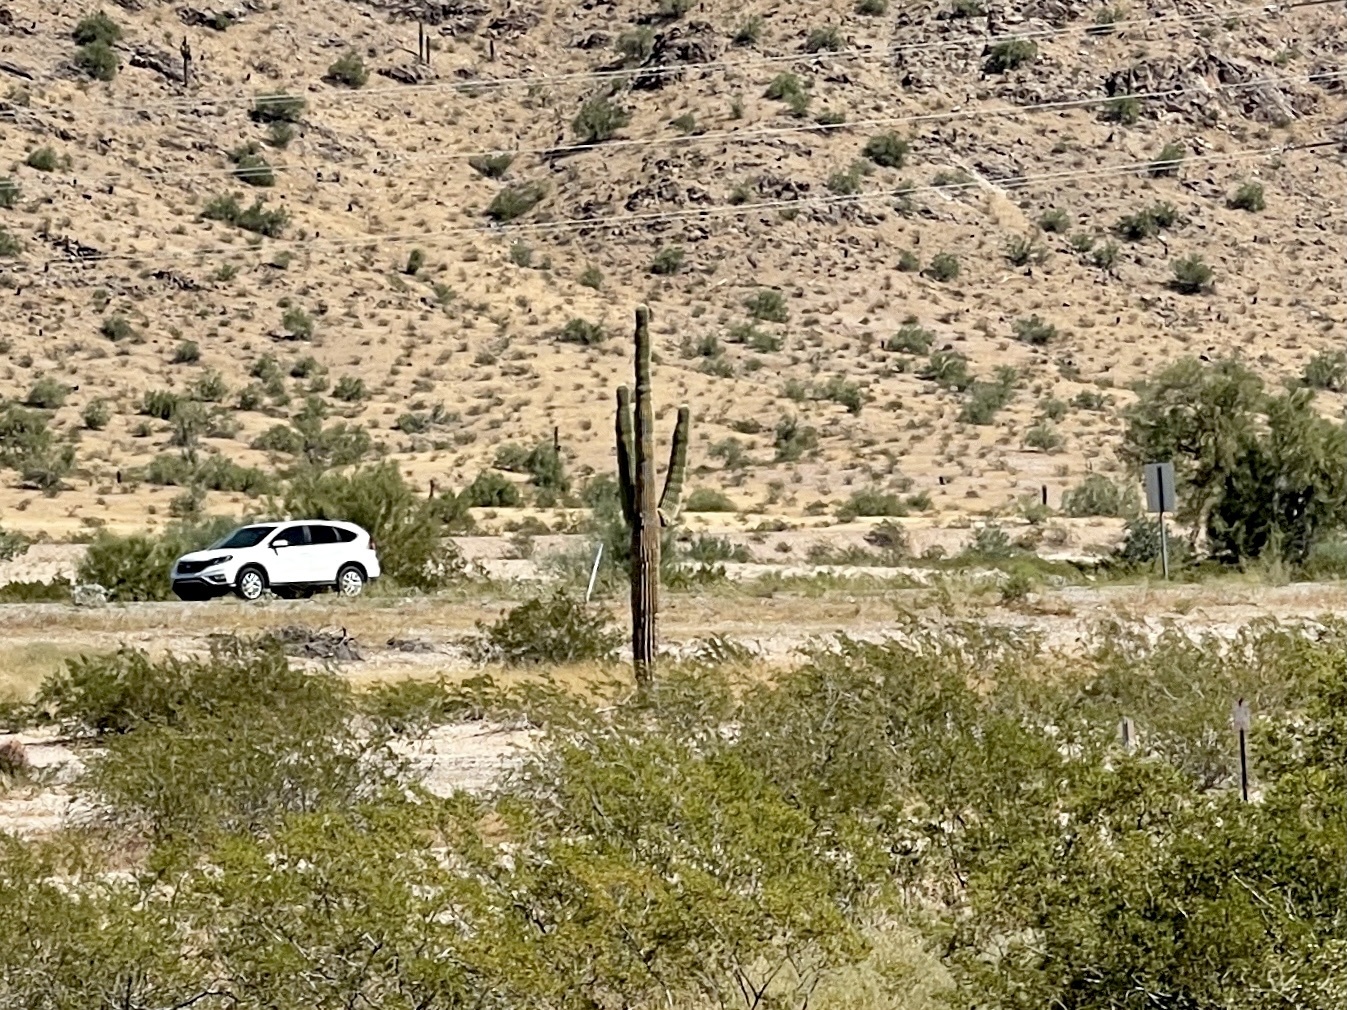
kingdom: Plantae
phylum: Tracheophyta
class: Magnoliopsida
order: Caryophyllales
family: Cactaceae
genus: Carnegiea
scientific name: Carnegiea gigantea
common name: Saguaro
